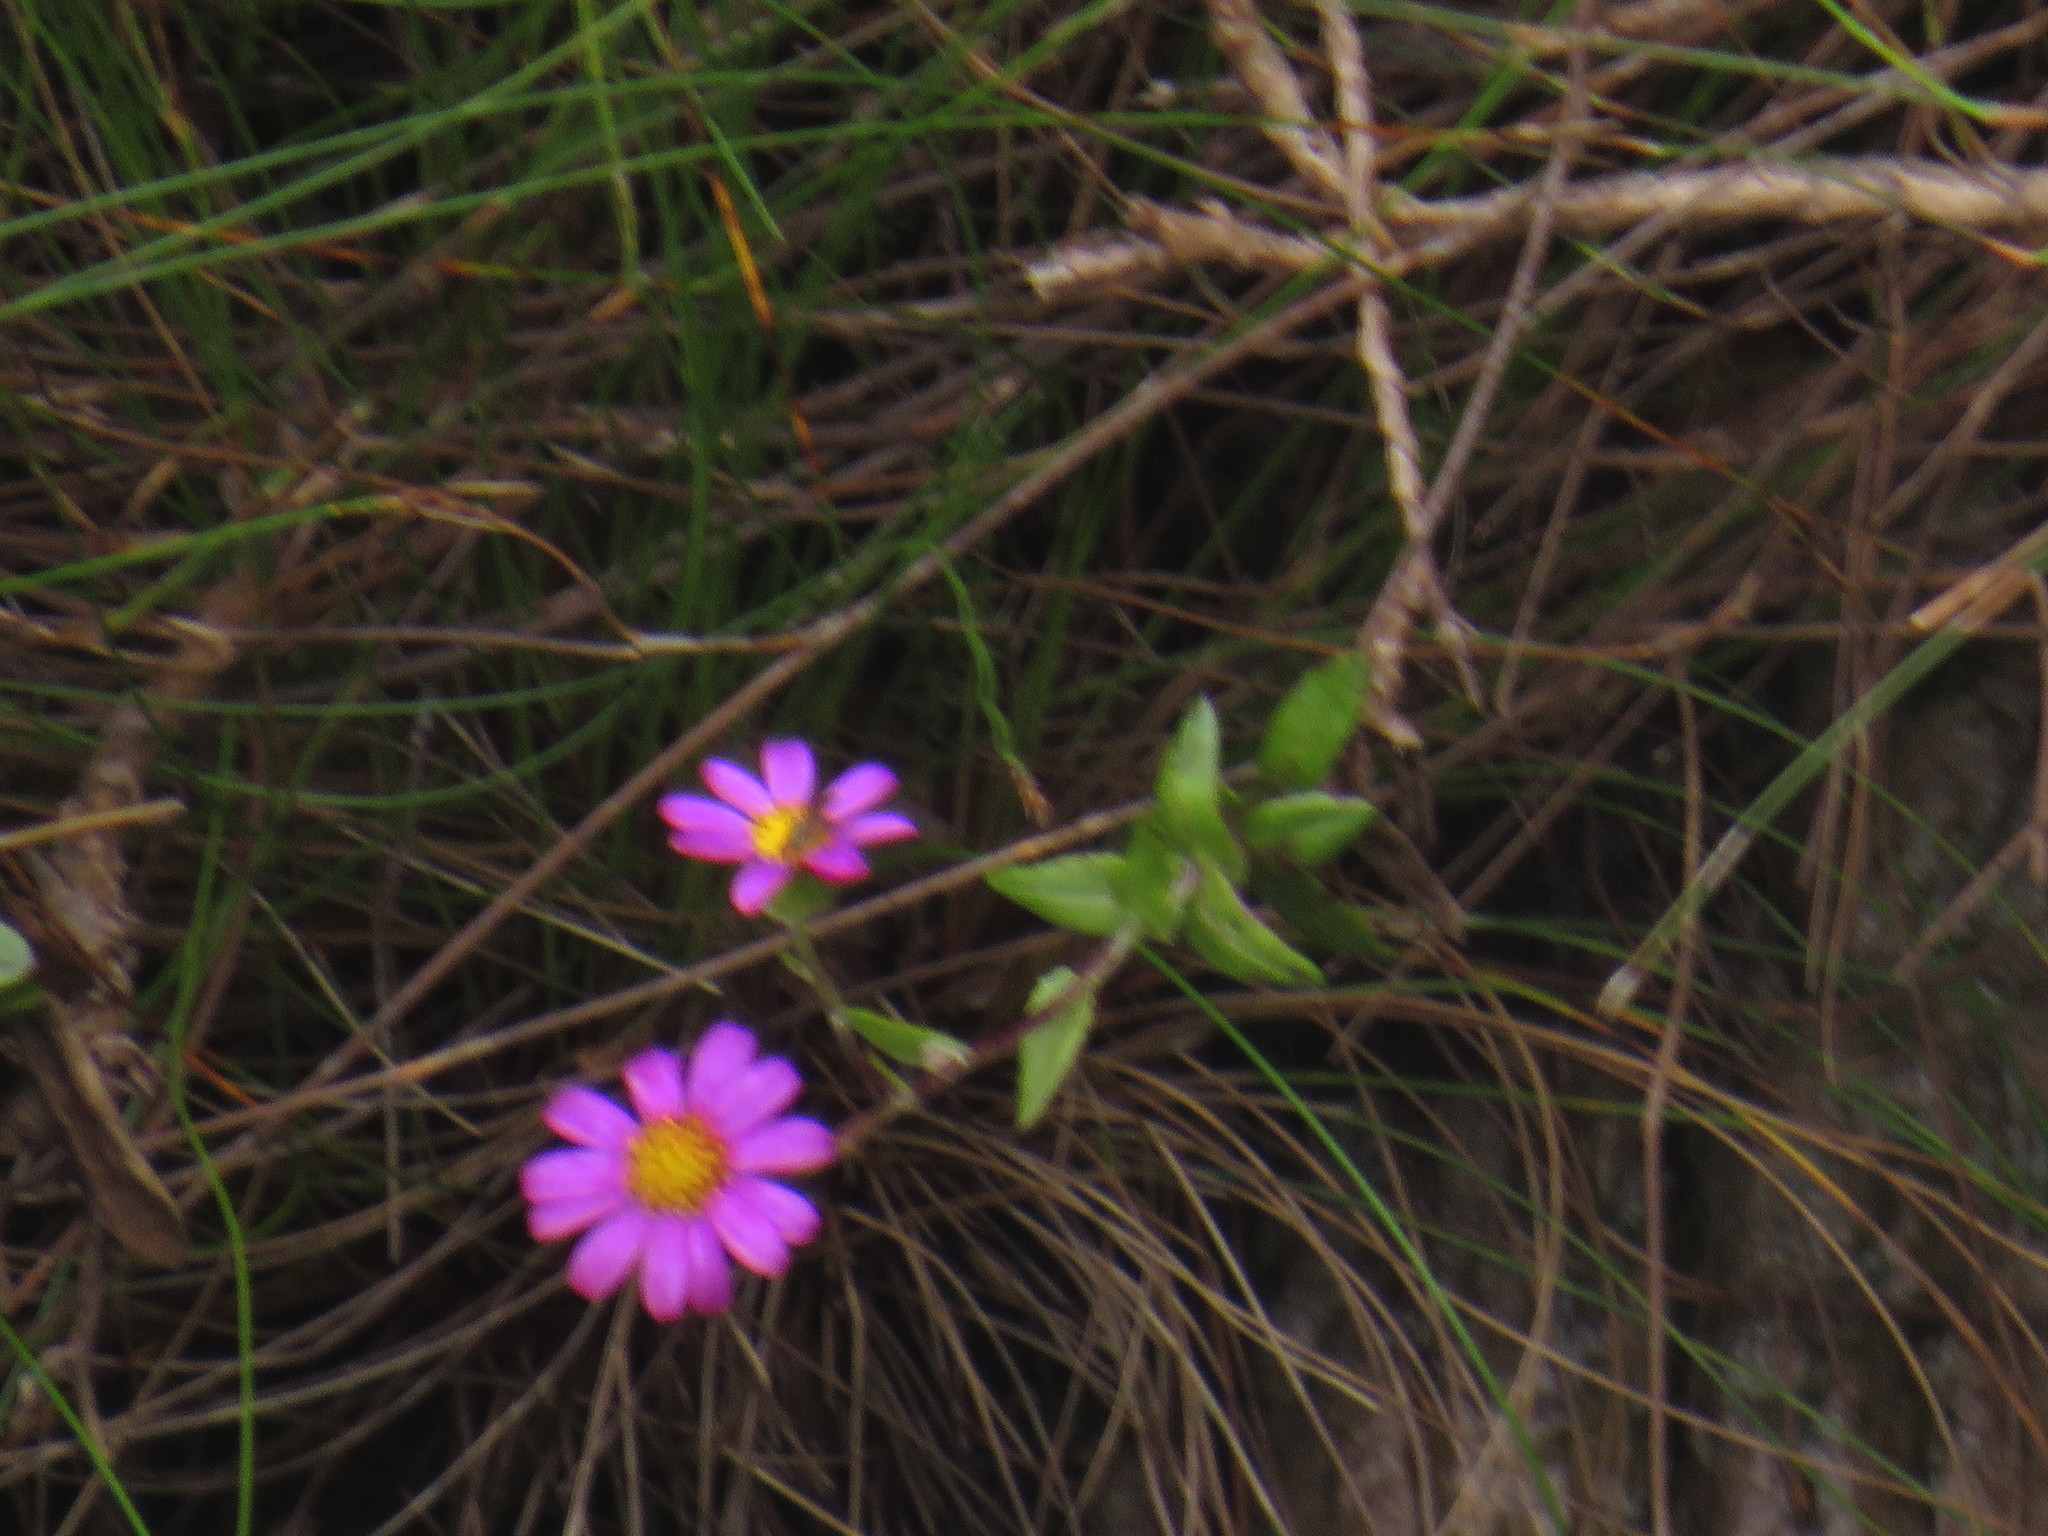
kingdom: Plantae
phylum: Tracheophyta
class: Magnoliopsida
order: Asterales
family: Asteraceae
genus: Senecio
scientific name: Senecio speciosissimus
